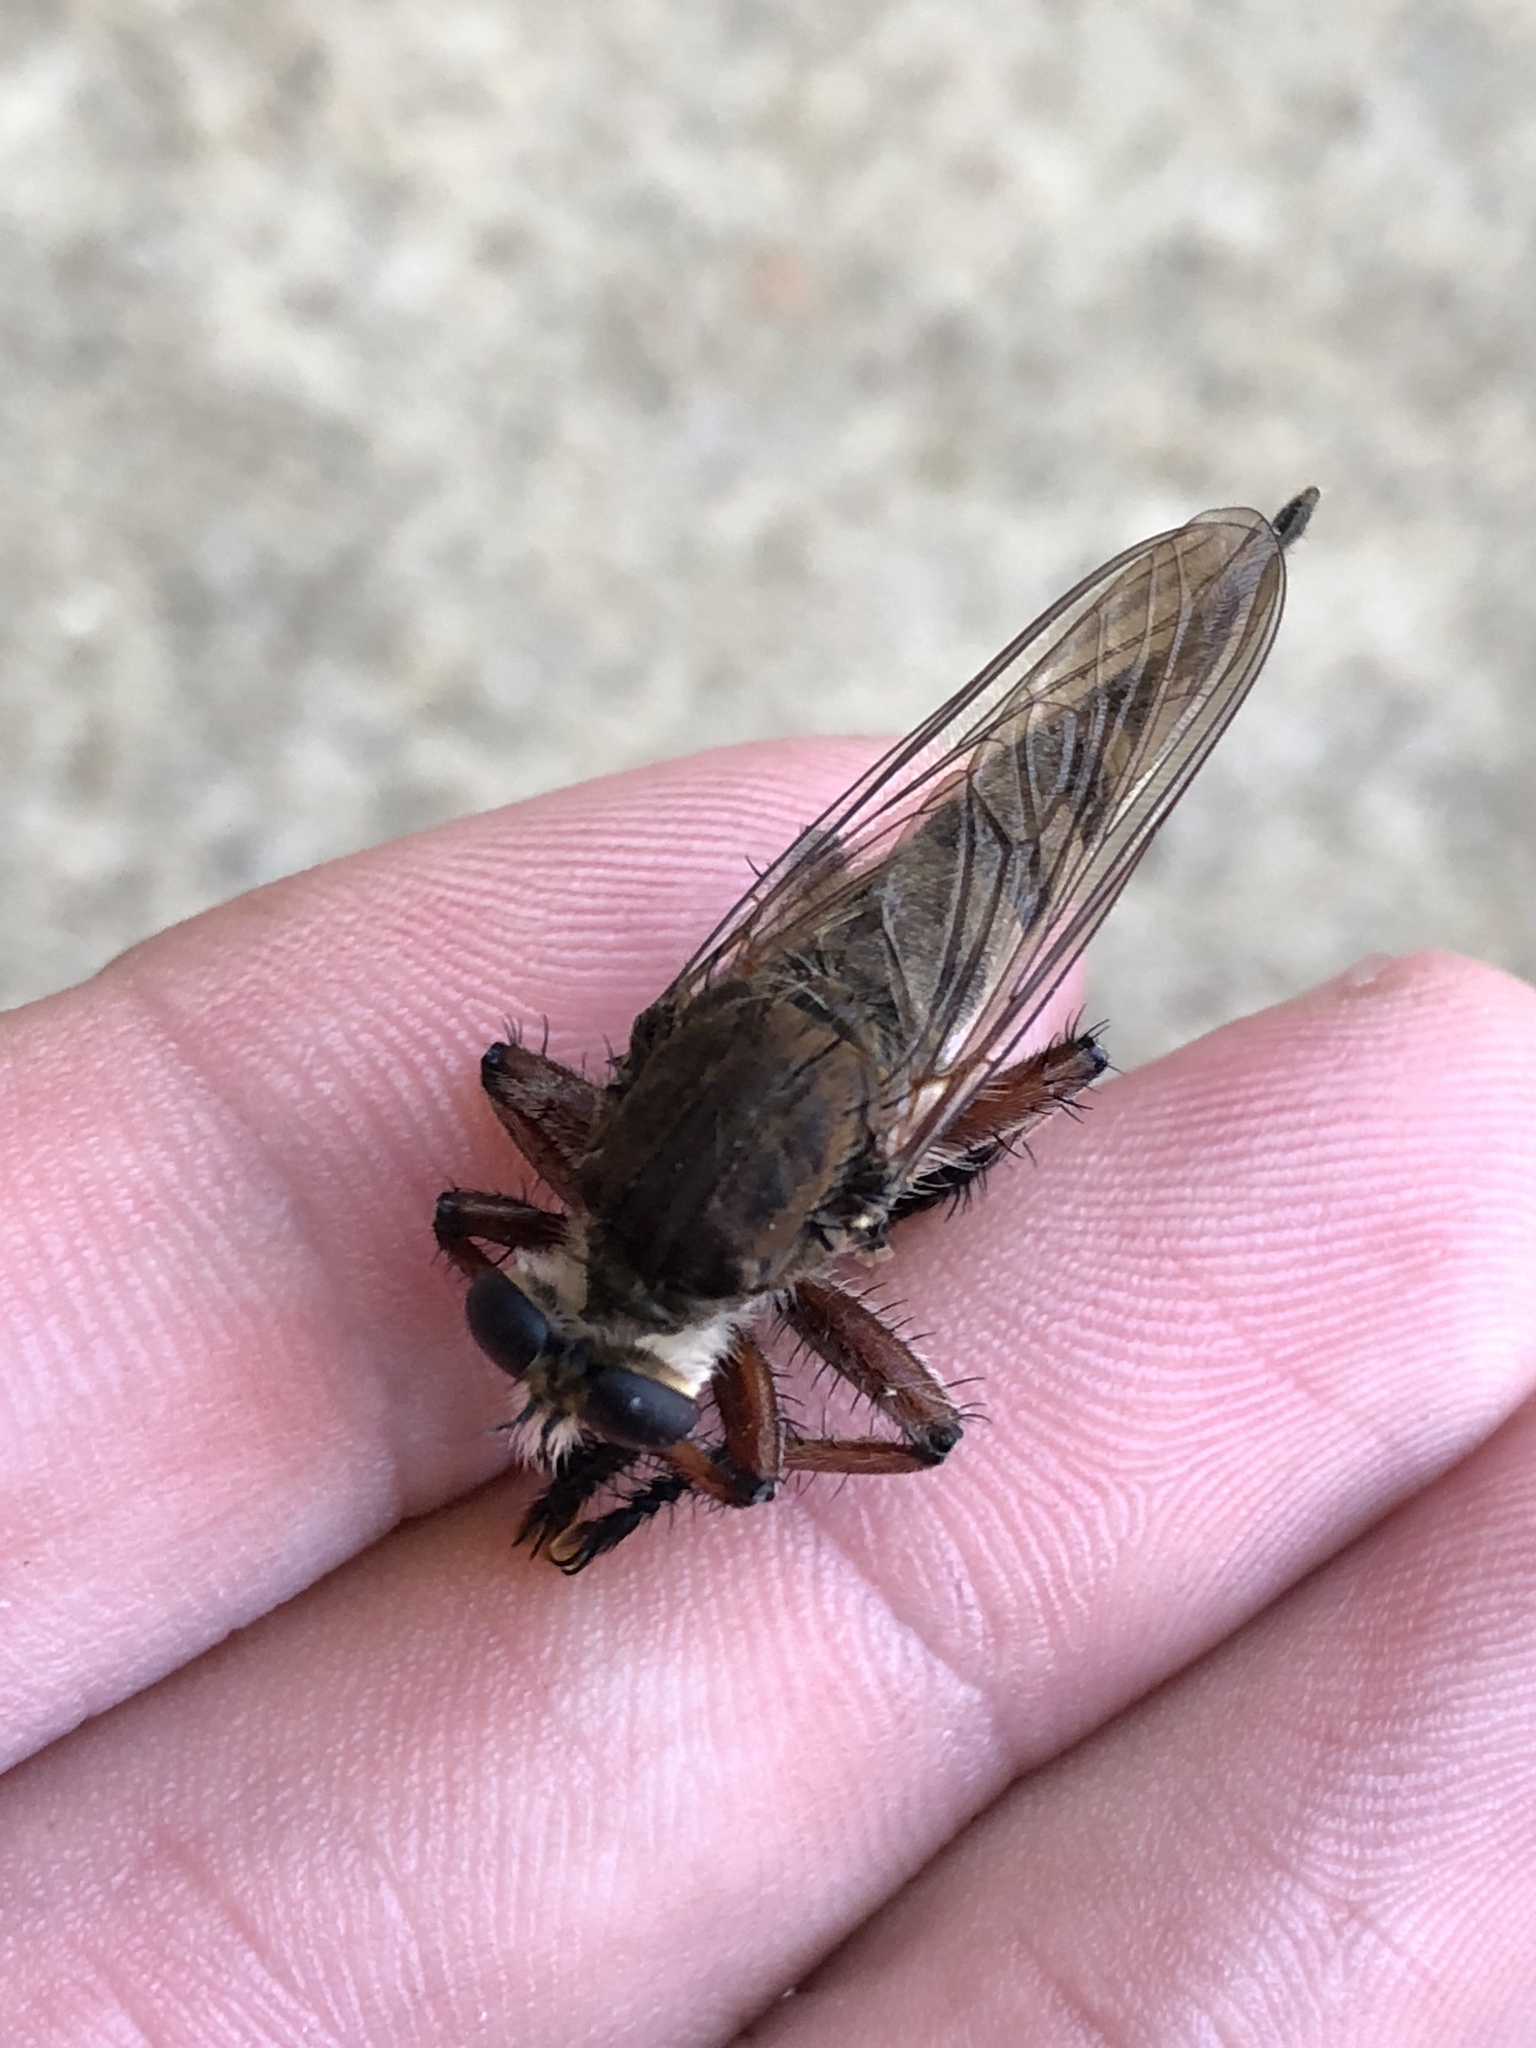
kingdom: Animalia
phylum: Arthropoda
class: Insecta
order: Diptera
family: Asilidae
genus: Promachus
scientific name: Promachus hinei
